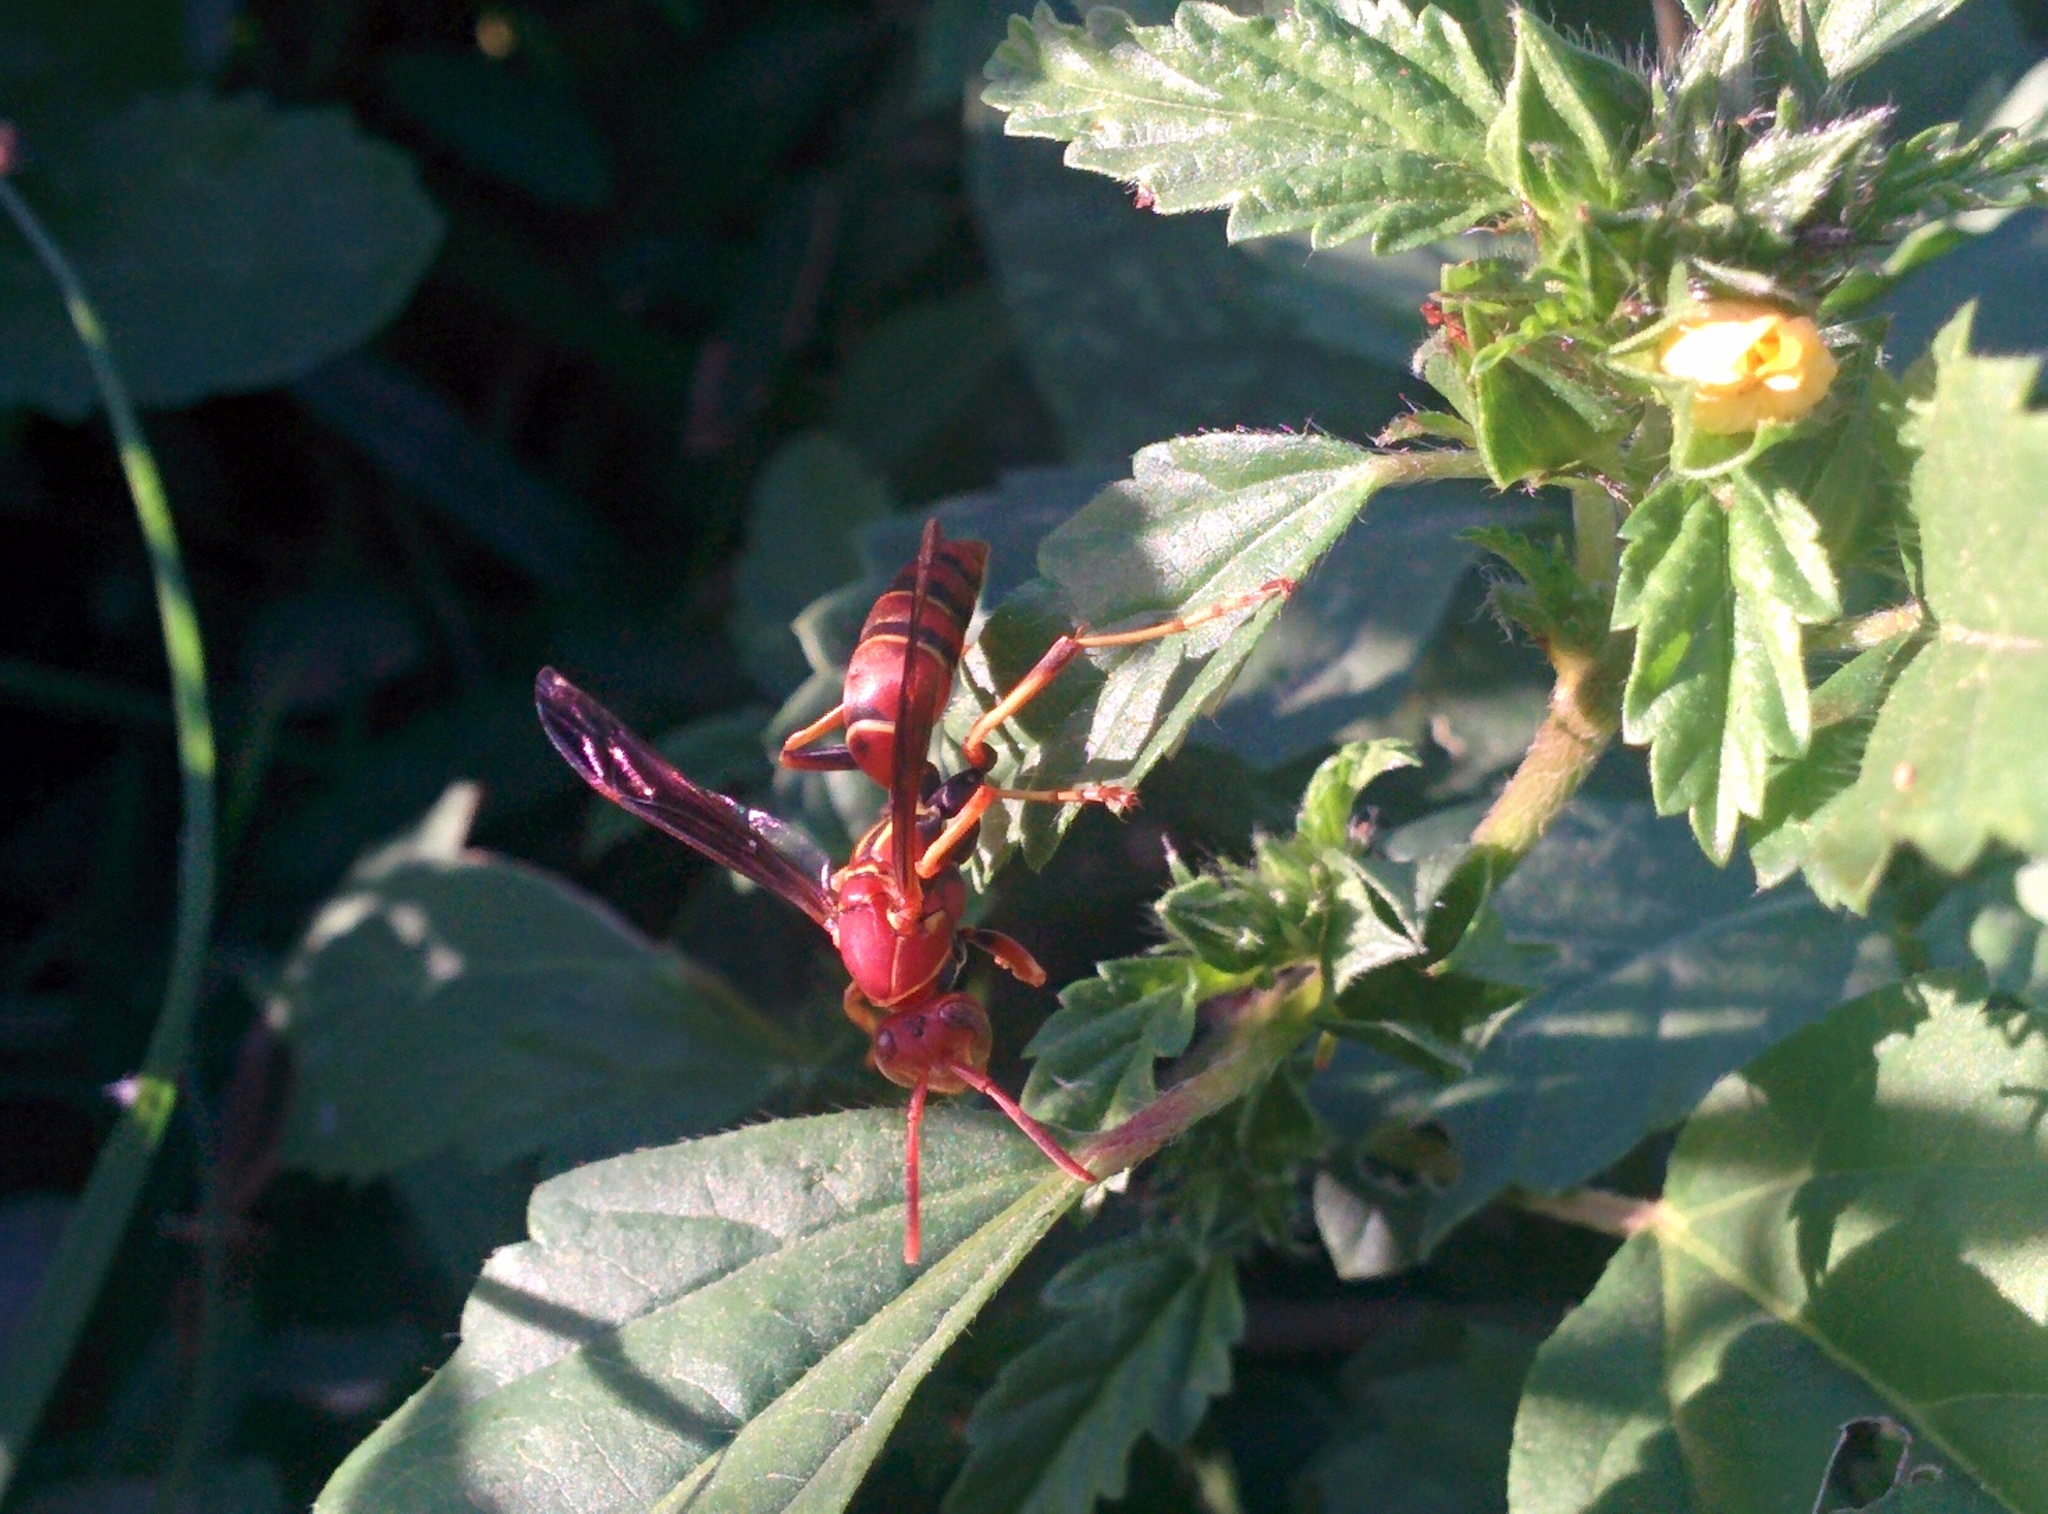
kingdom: Animalia
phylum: Arthropoda
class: Insecta
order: Hymenoptera
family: Eumenidae
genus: Polistes
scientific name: Polistes dorsalis
